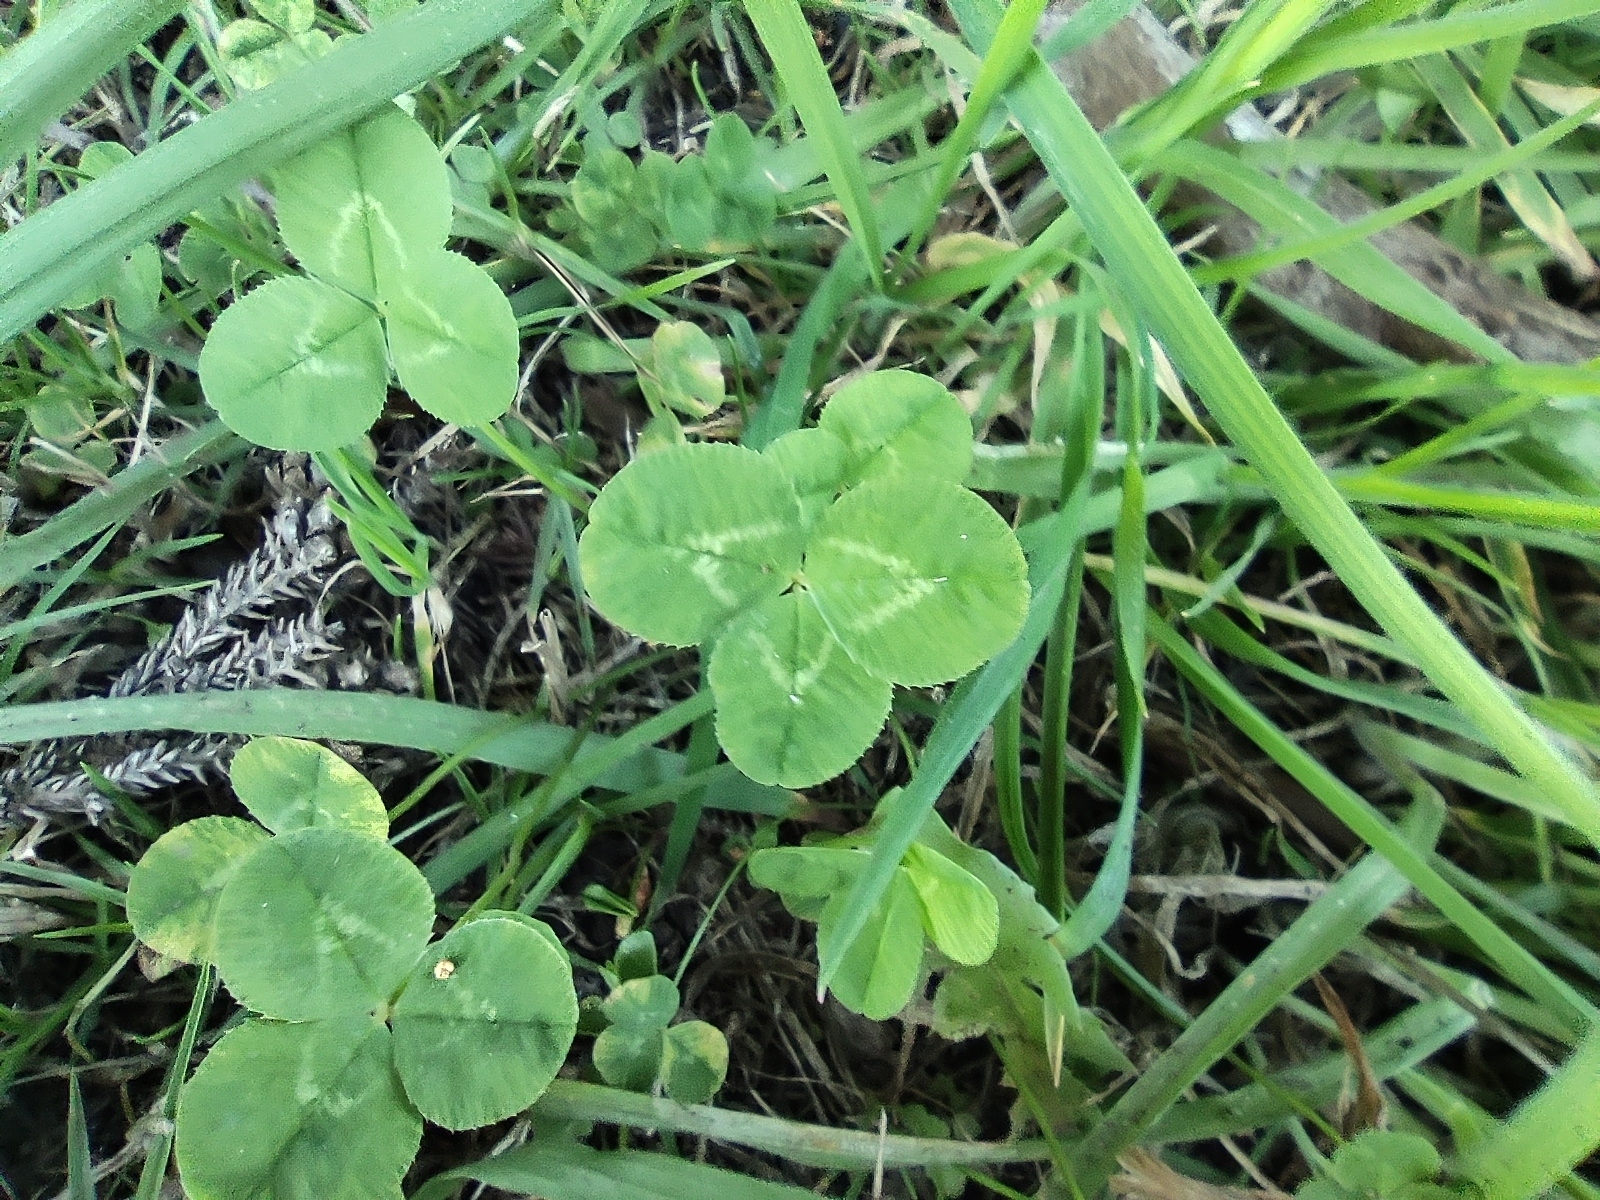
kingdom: Plantae
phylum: Tracheophyta
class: Magnoliopsida
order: Fabales
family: Fabaceae
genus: Trifolium
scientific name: Trifolium repens
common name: White clover
